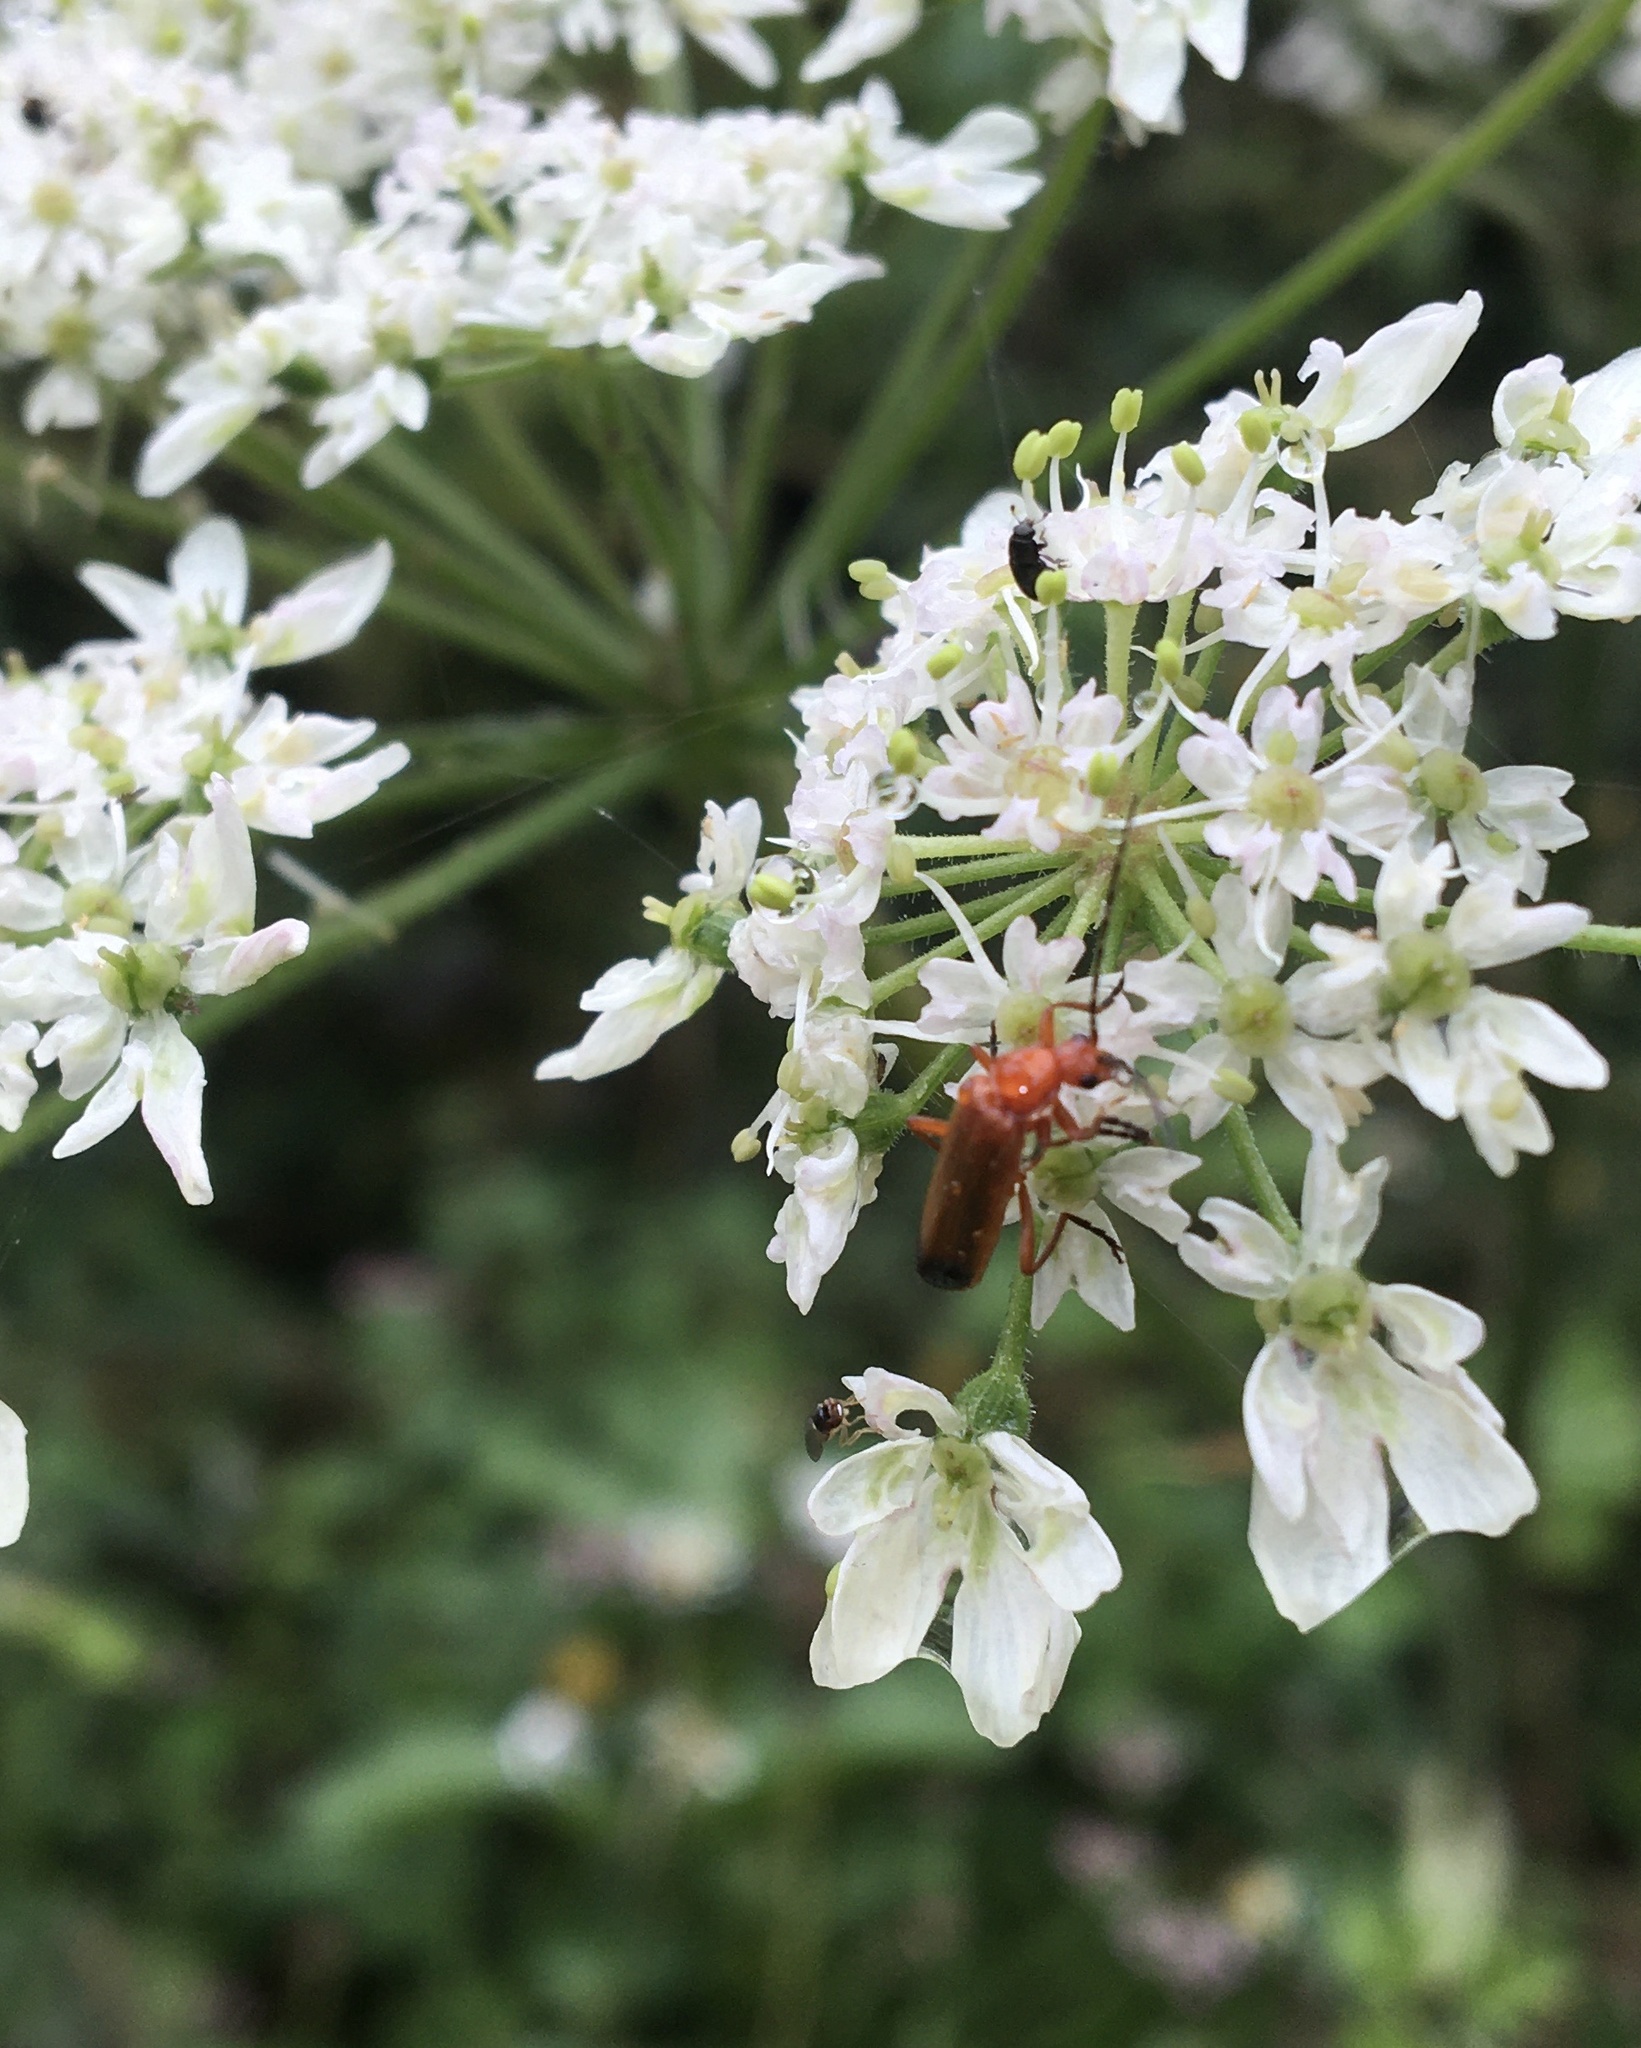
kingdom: Animalia
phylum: Arthropoda
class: Insecta
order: Coleoptera
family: Cantharidae
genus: Rhagonycha
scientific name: Rhagonycha fulva
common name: Common red soldier beetle
